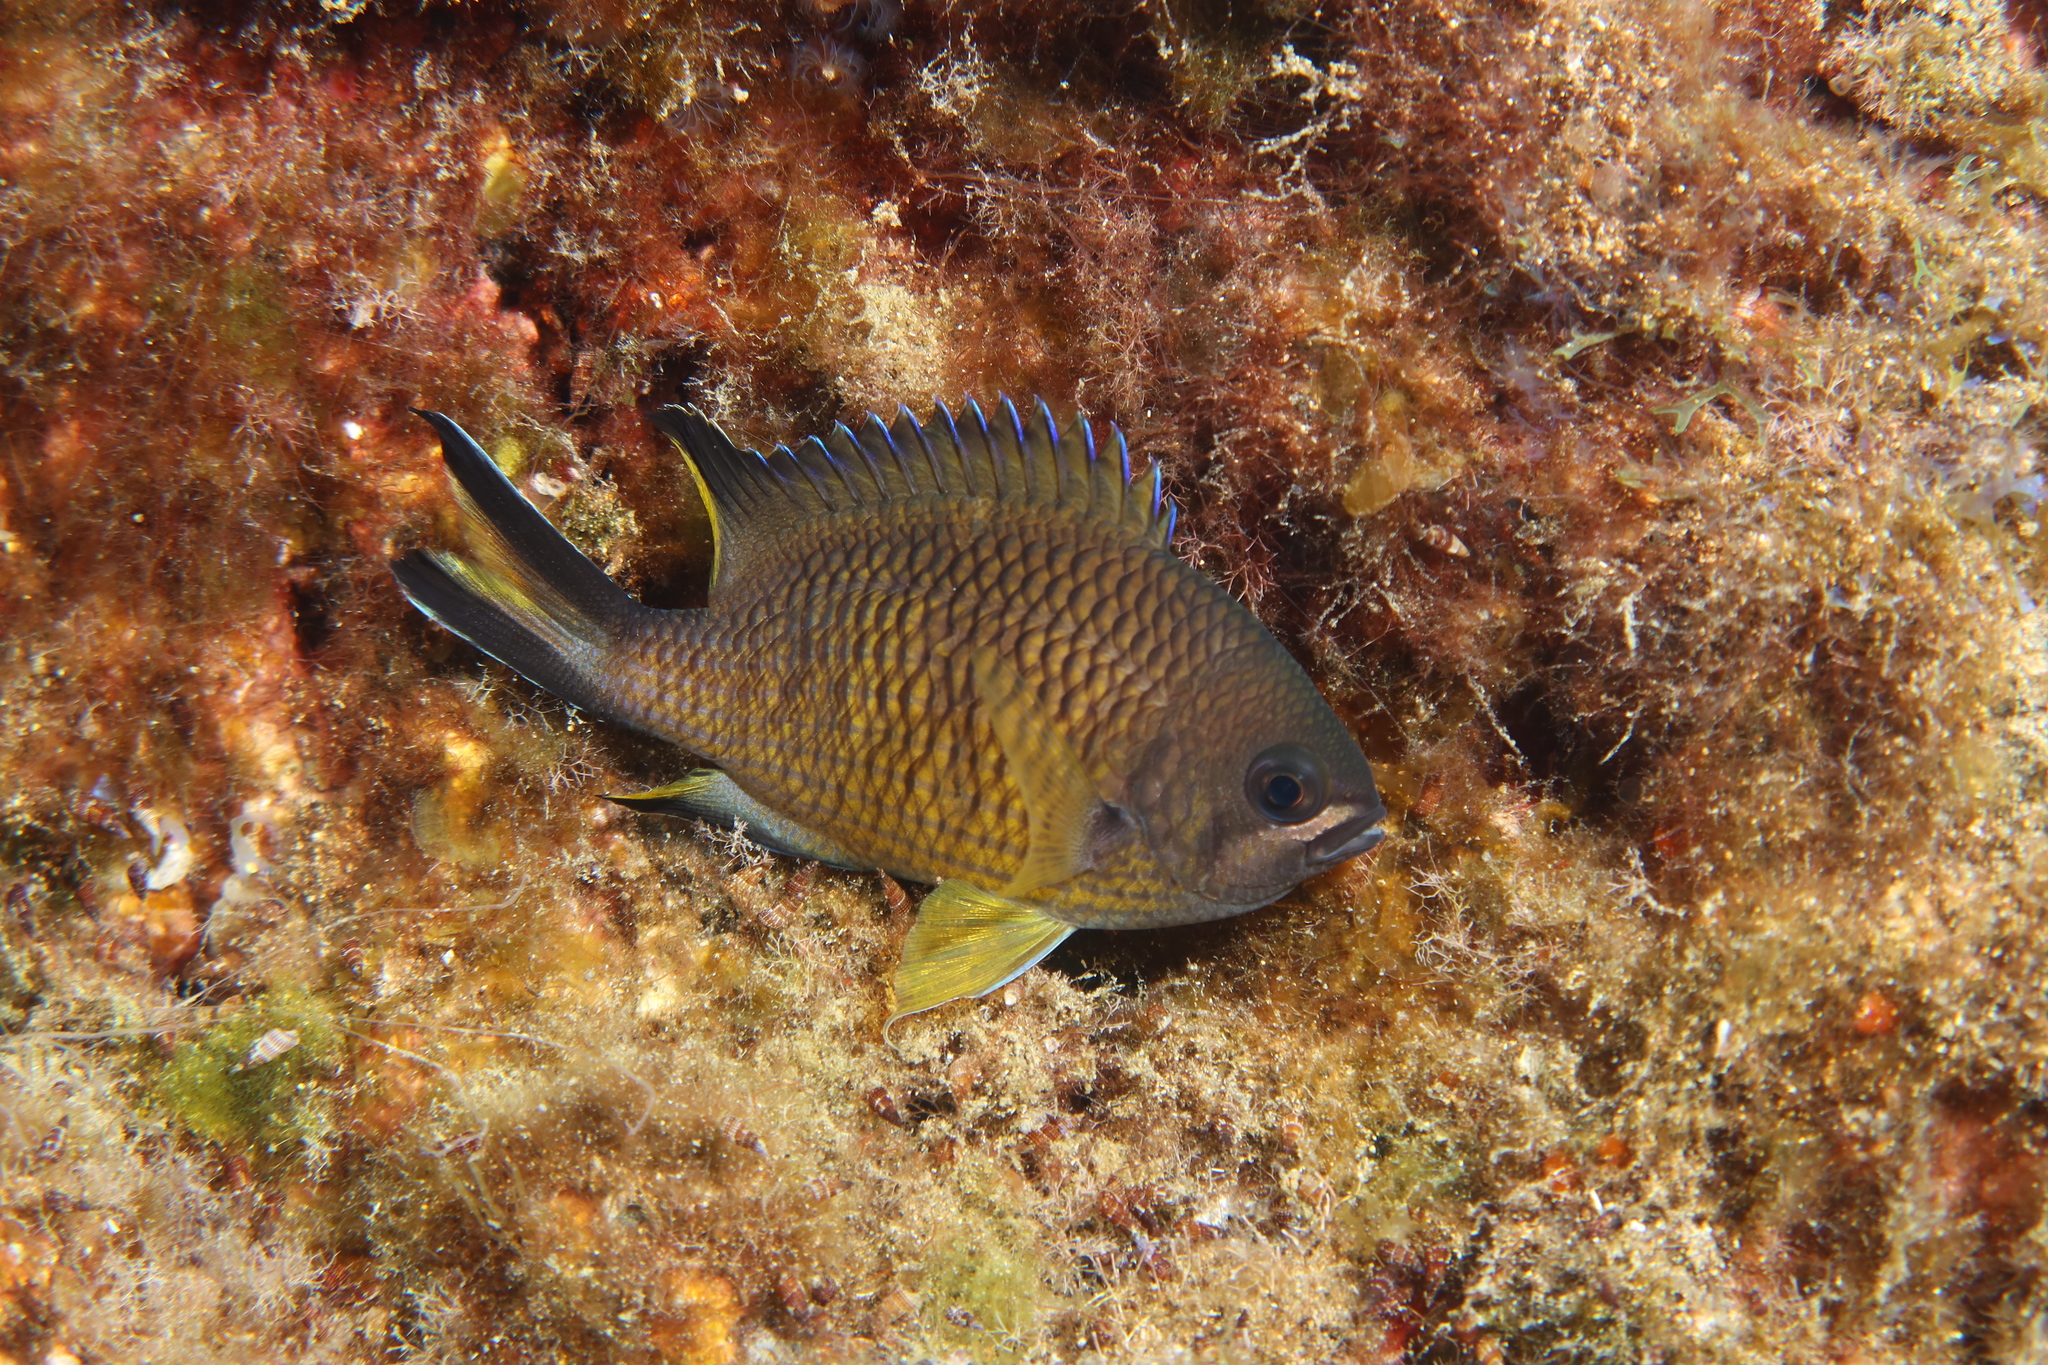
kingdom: Animalia
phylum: Chordata
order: Perciformes
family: Pomacentridae
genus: Chromis
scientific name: Chromis limbata
